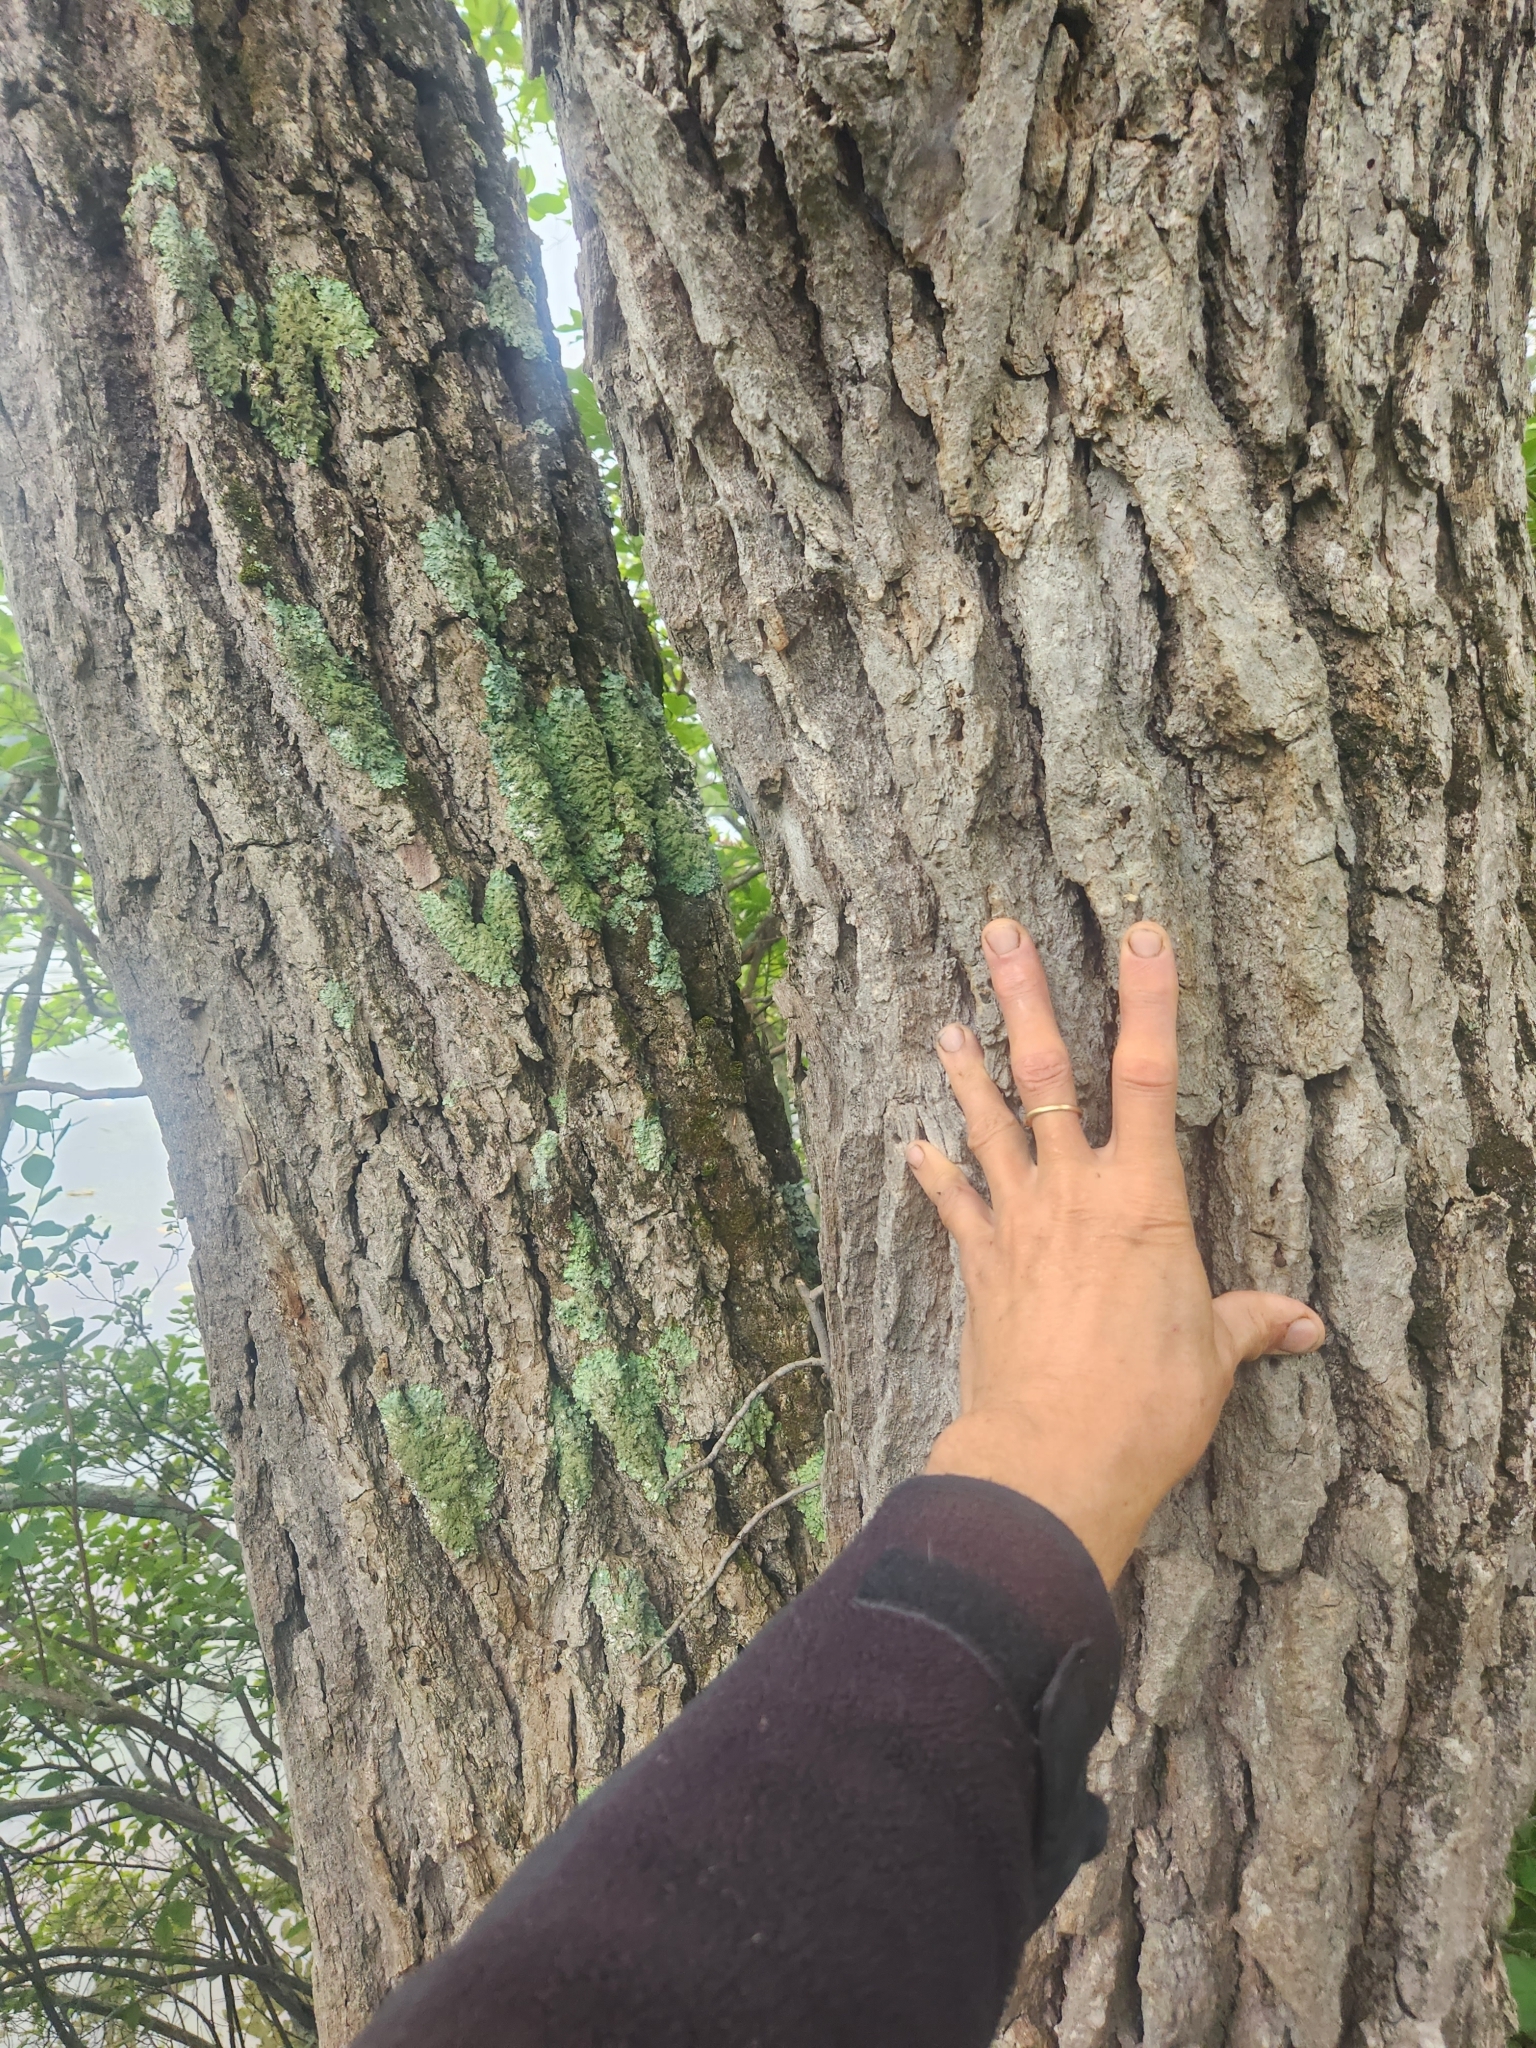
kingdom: Plantae
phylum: Tracheophyta
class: Magnoliopsida
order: Cornales
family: Nyssaceae
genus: Nyssa
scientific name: Nyssa sylvatica
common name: Black tupelo
